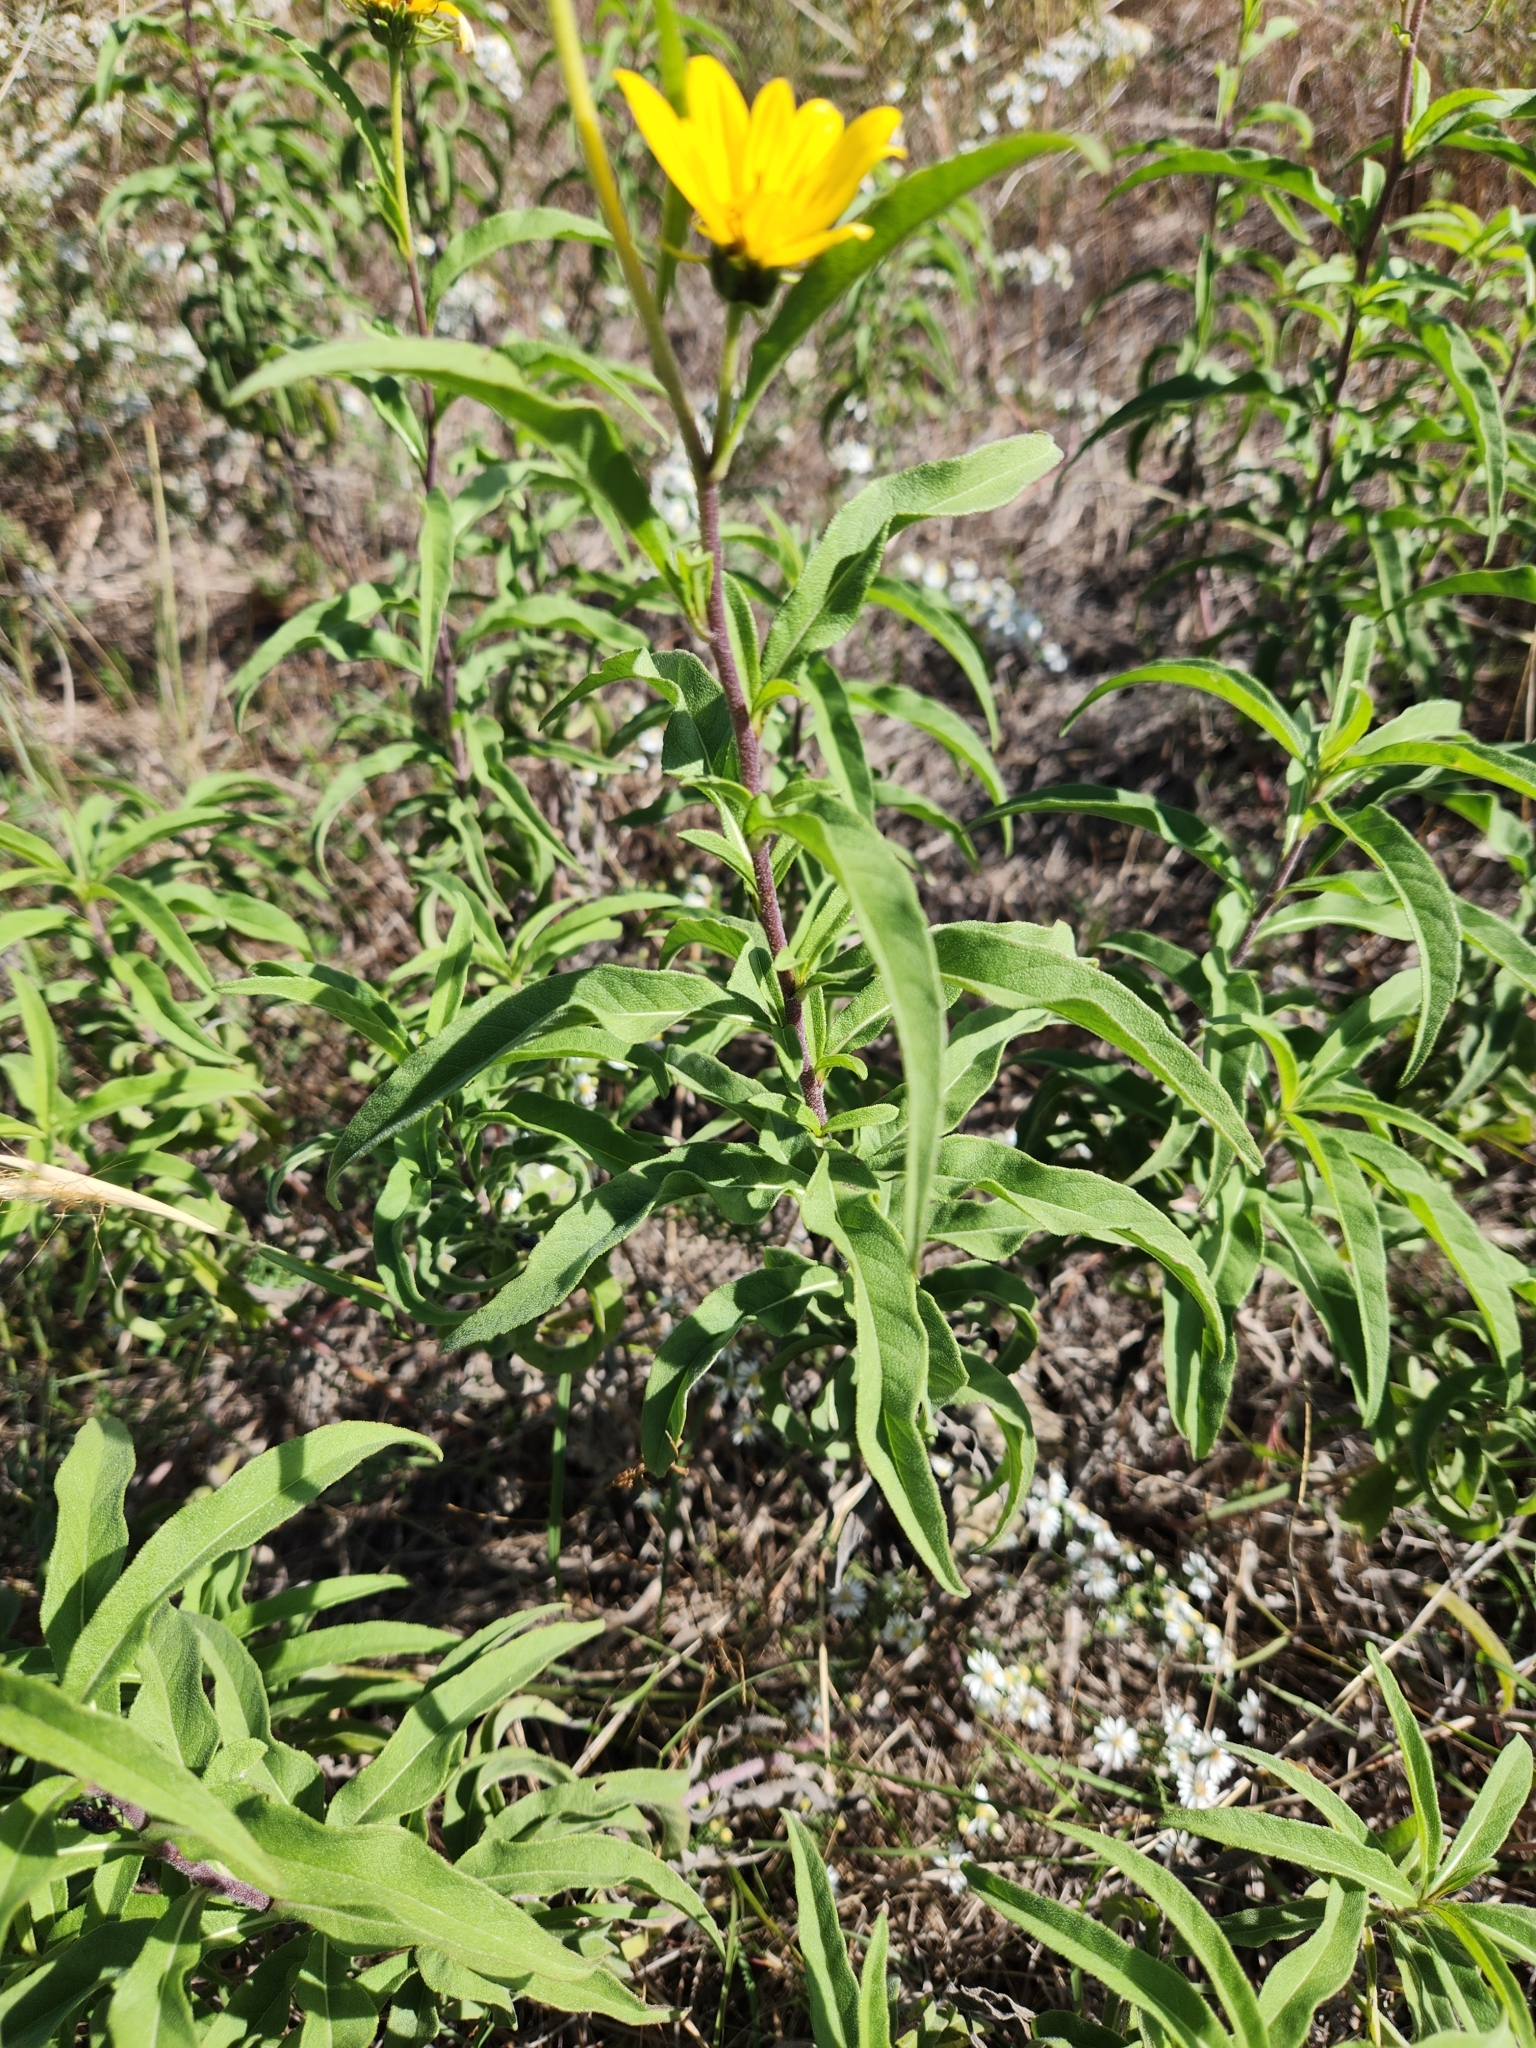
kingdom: Plantae
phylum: Tracheophyta
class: Magnoliopsida
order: Asterales
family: Asteraceae
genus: Helianthus
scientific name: Helianthus maximiliani
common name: Maximilian's sunflower
